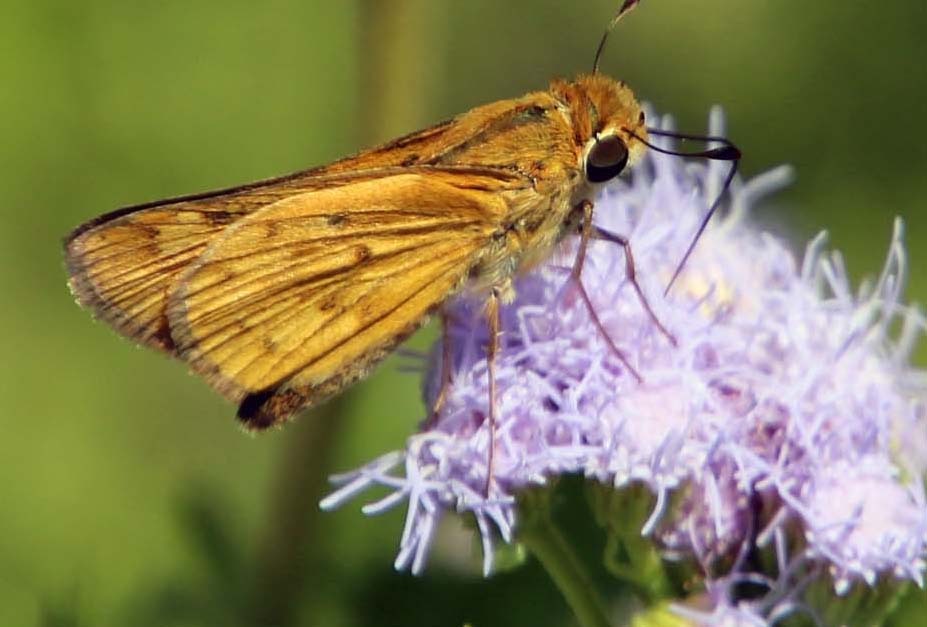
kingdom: Animalia
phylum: Arthropoda
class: Insecta
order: Lepidoptera
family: Hesperiidae
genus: Hylephila
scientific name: Hylephila phyleus
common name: Fiery skipper
